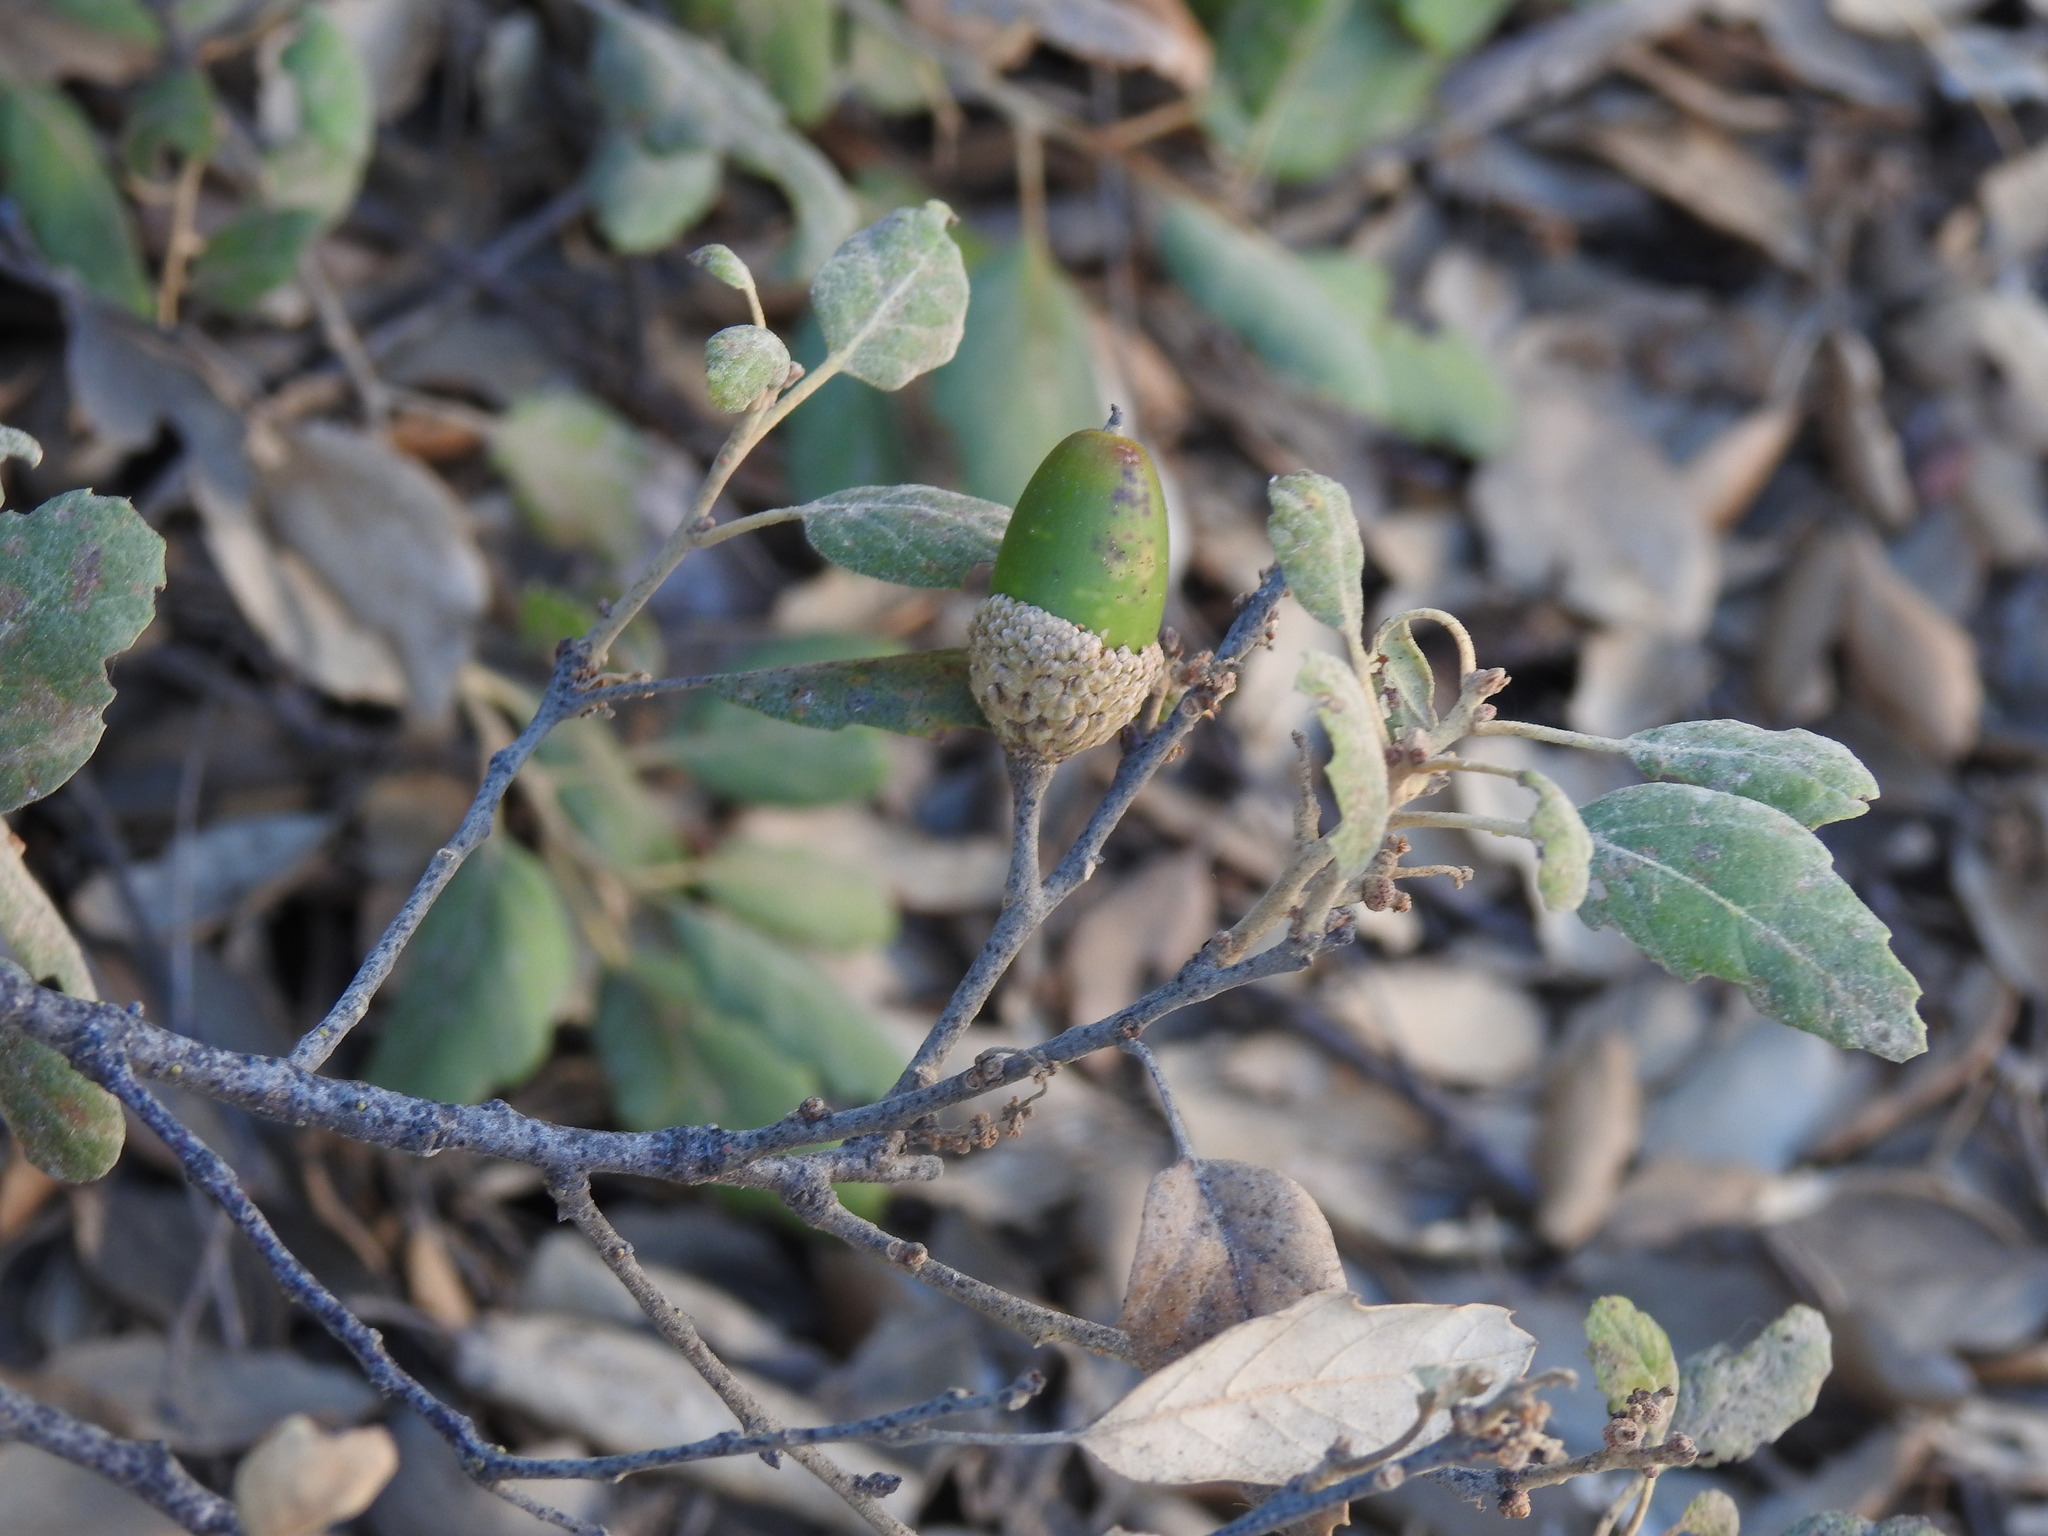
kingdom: Plantae
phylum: Tracheophyta
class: Magnoliopsida
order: Fagales
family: Fagaceae
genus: Quercus
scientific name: Quercus suber
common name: Cork oak
